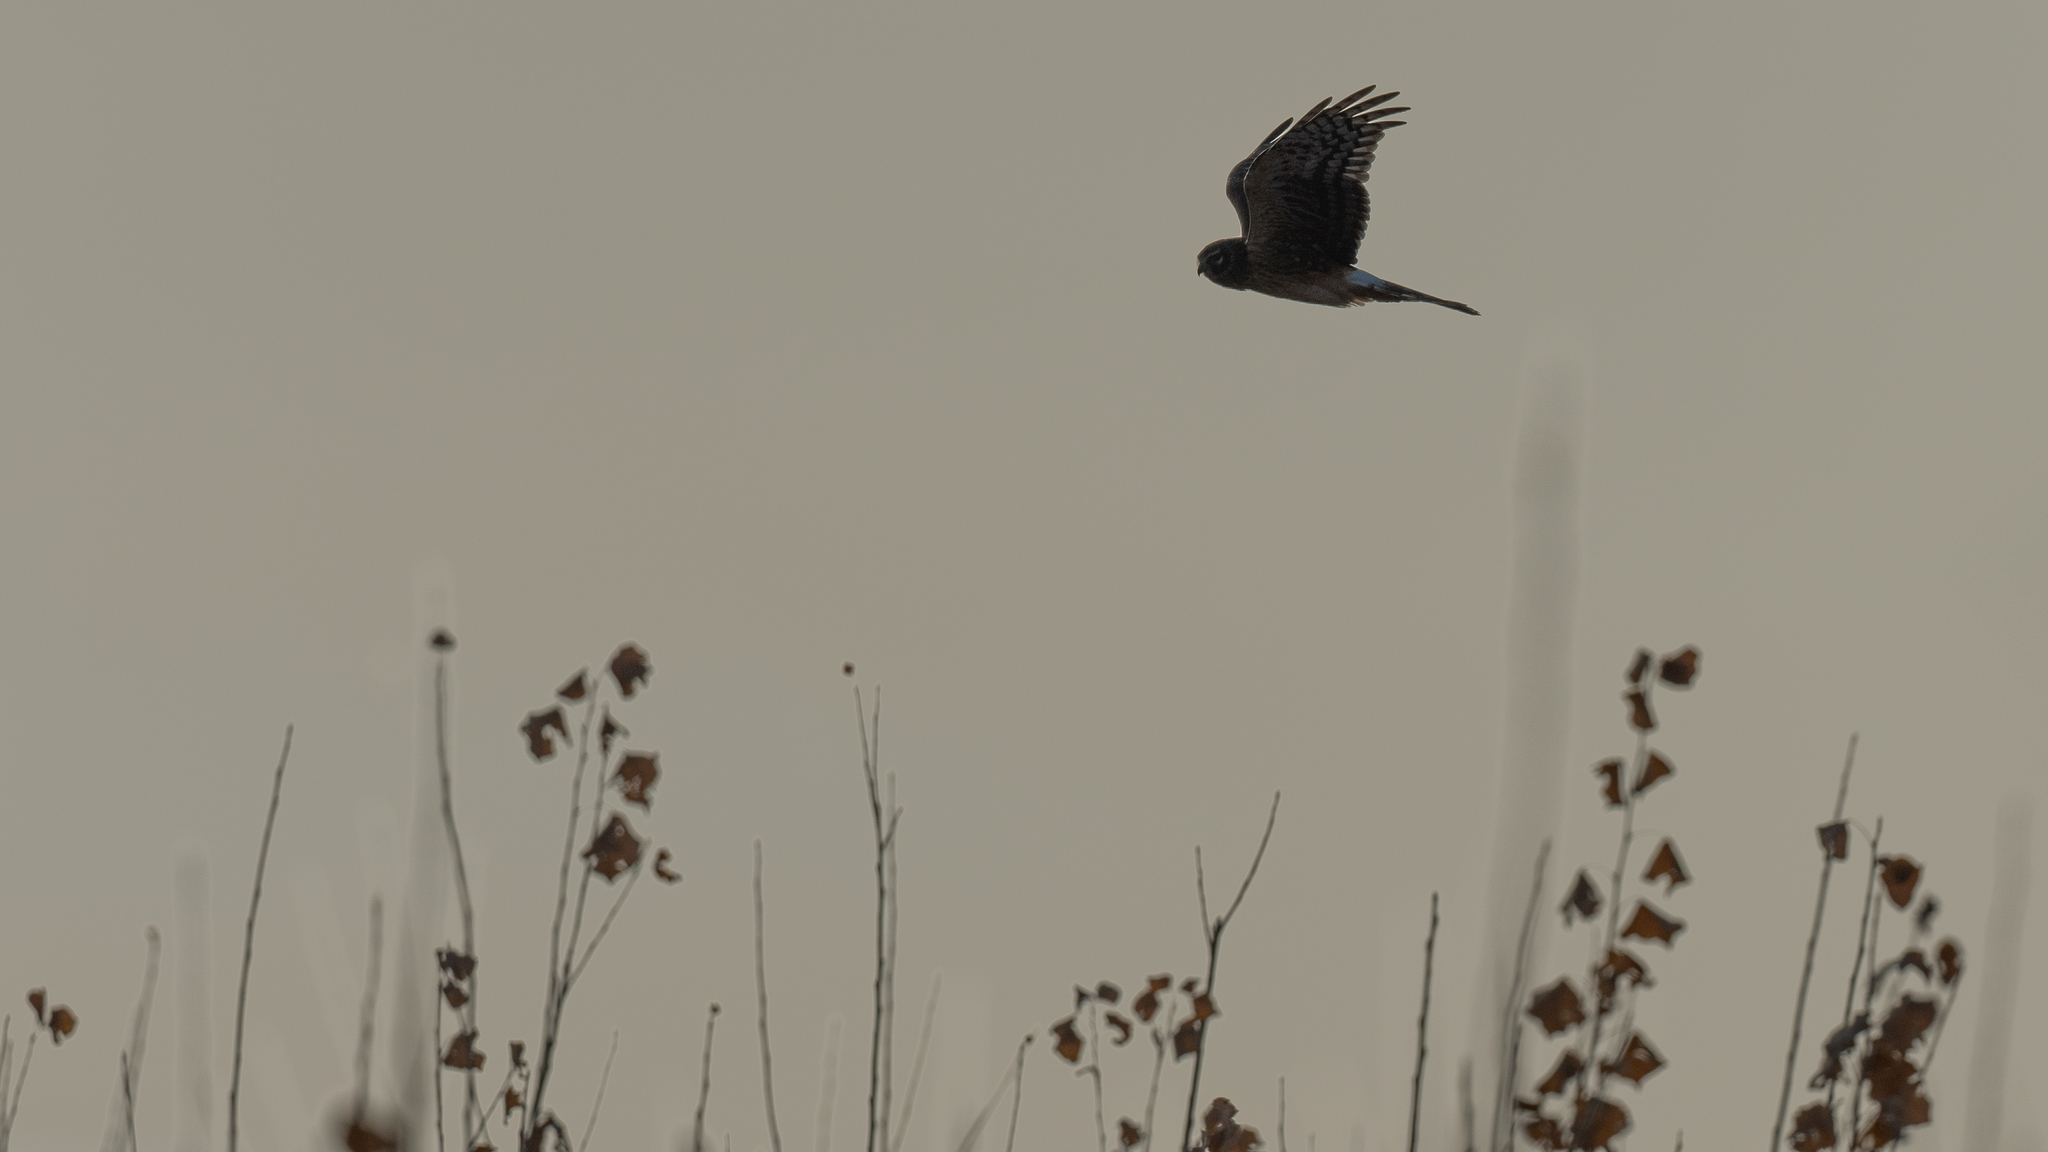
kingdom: Animalia
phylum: Chordata
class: Aves
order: Accipitriformes
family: Accipitridae
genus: Circus
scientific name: Circus cyaneus
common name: Hen harrier
